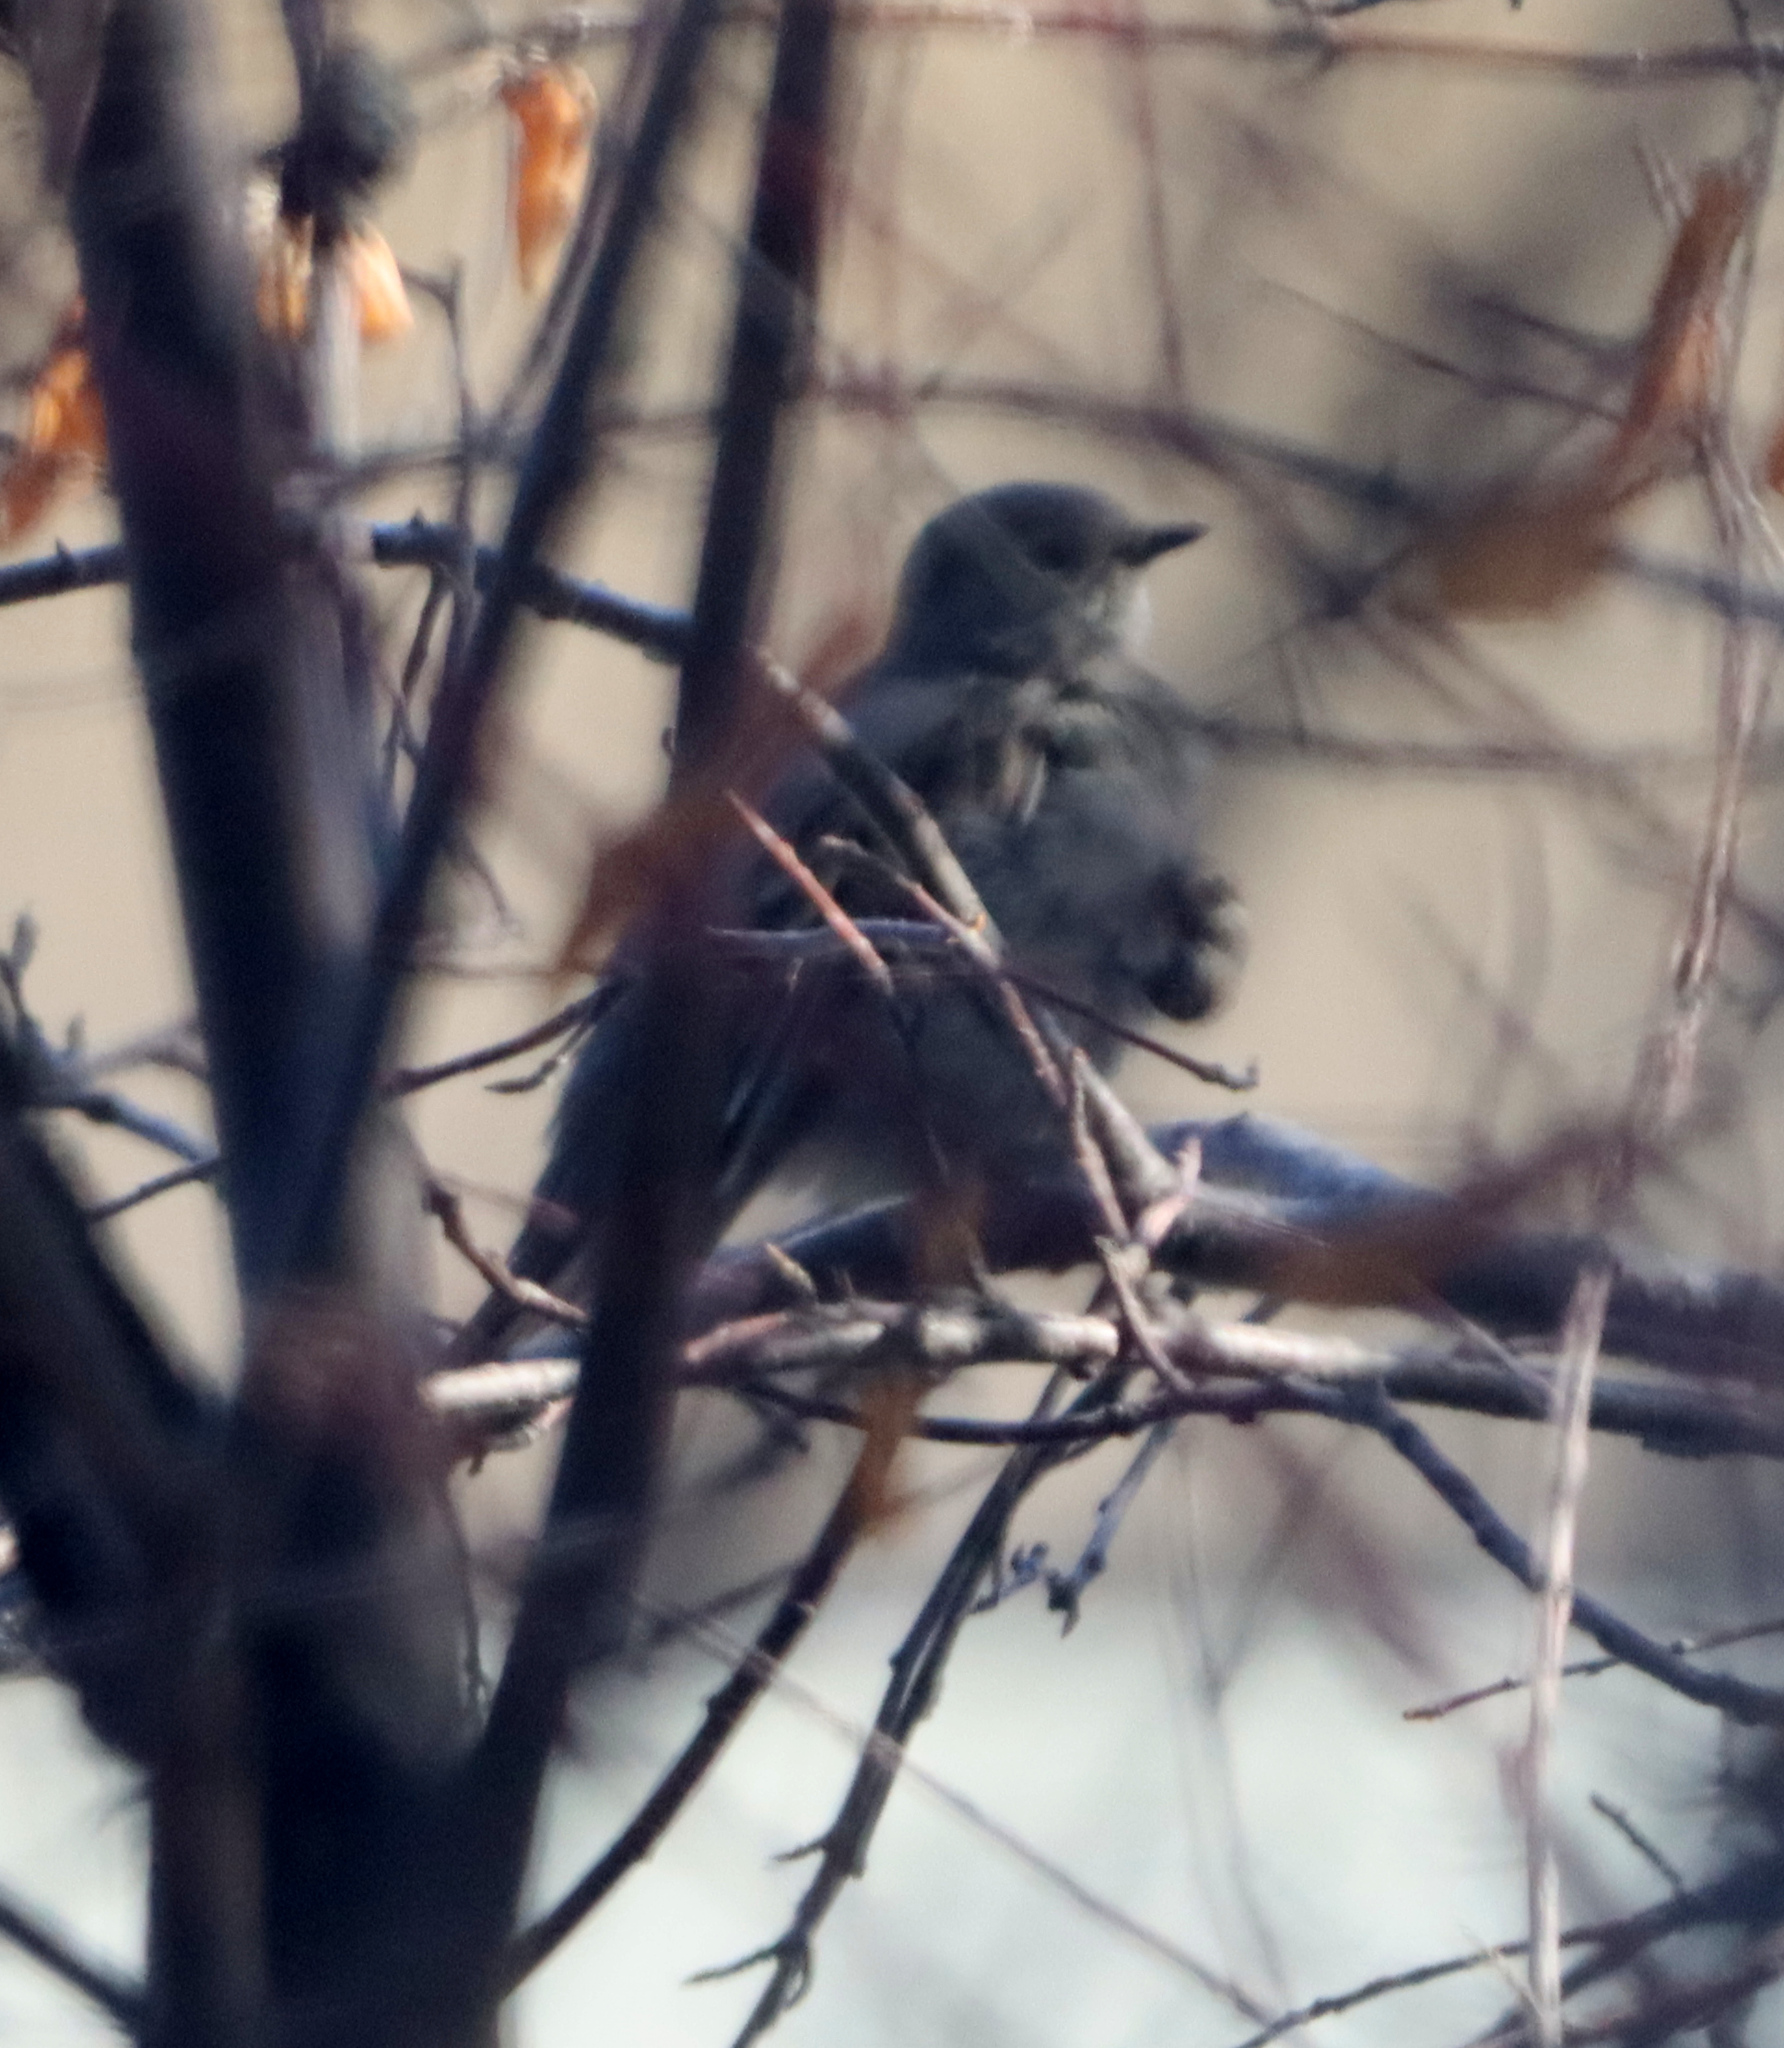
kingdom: Animalia
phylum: Chordata
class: Aves
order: Passeriformes
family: Turdidae
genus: Myadestes
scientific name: Myadestes townsendi
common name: Townsend's solitaire
